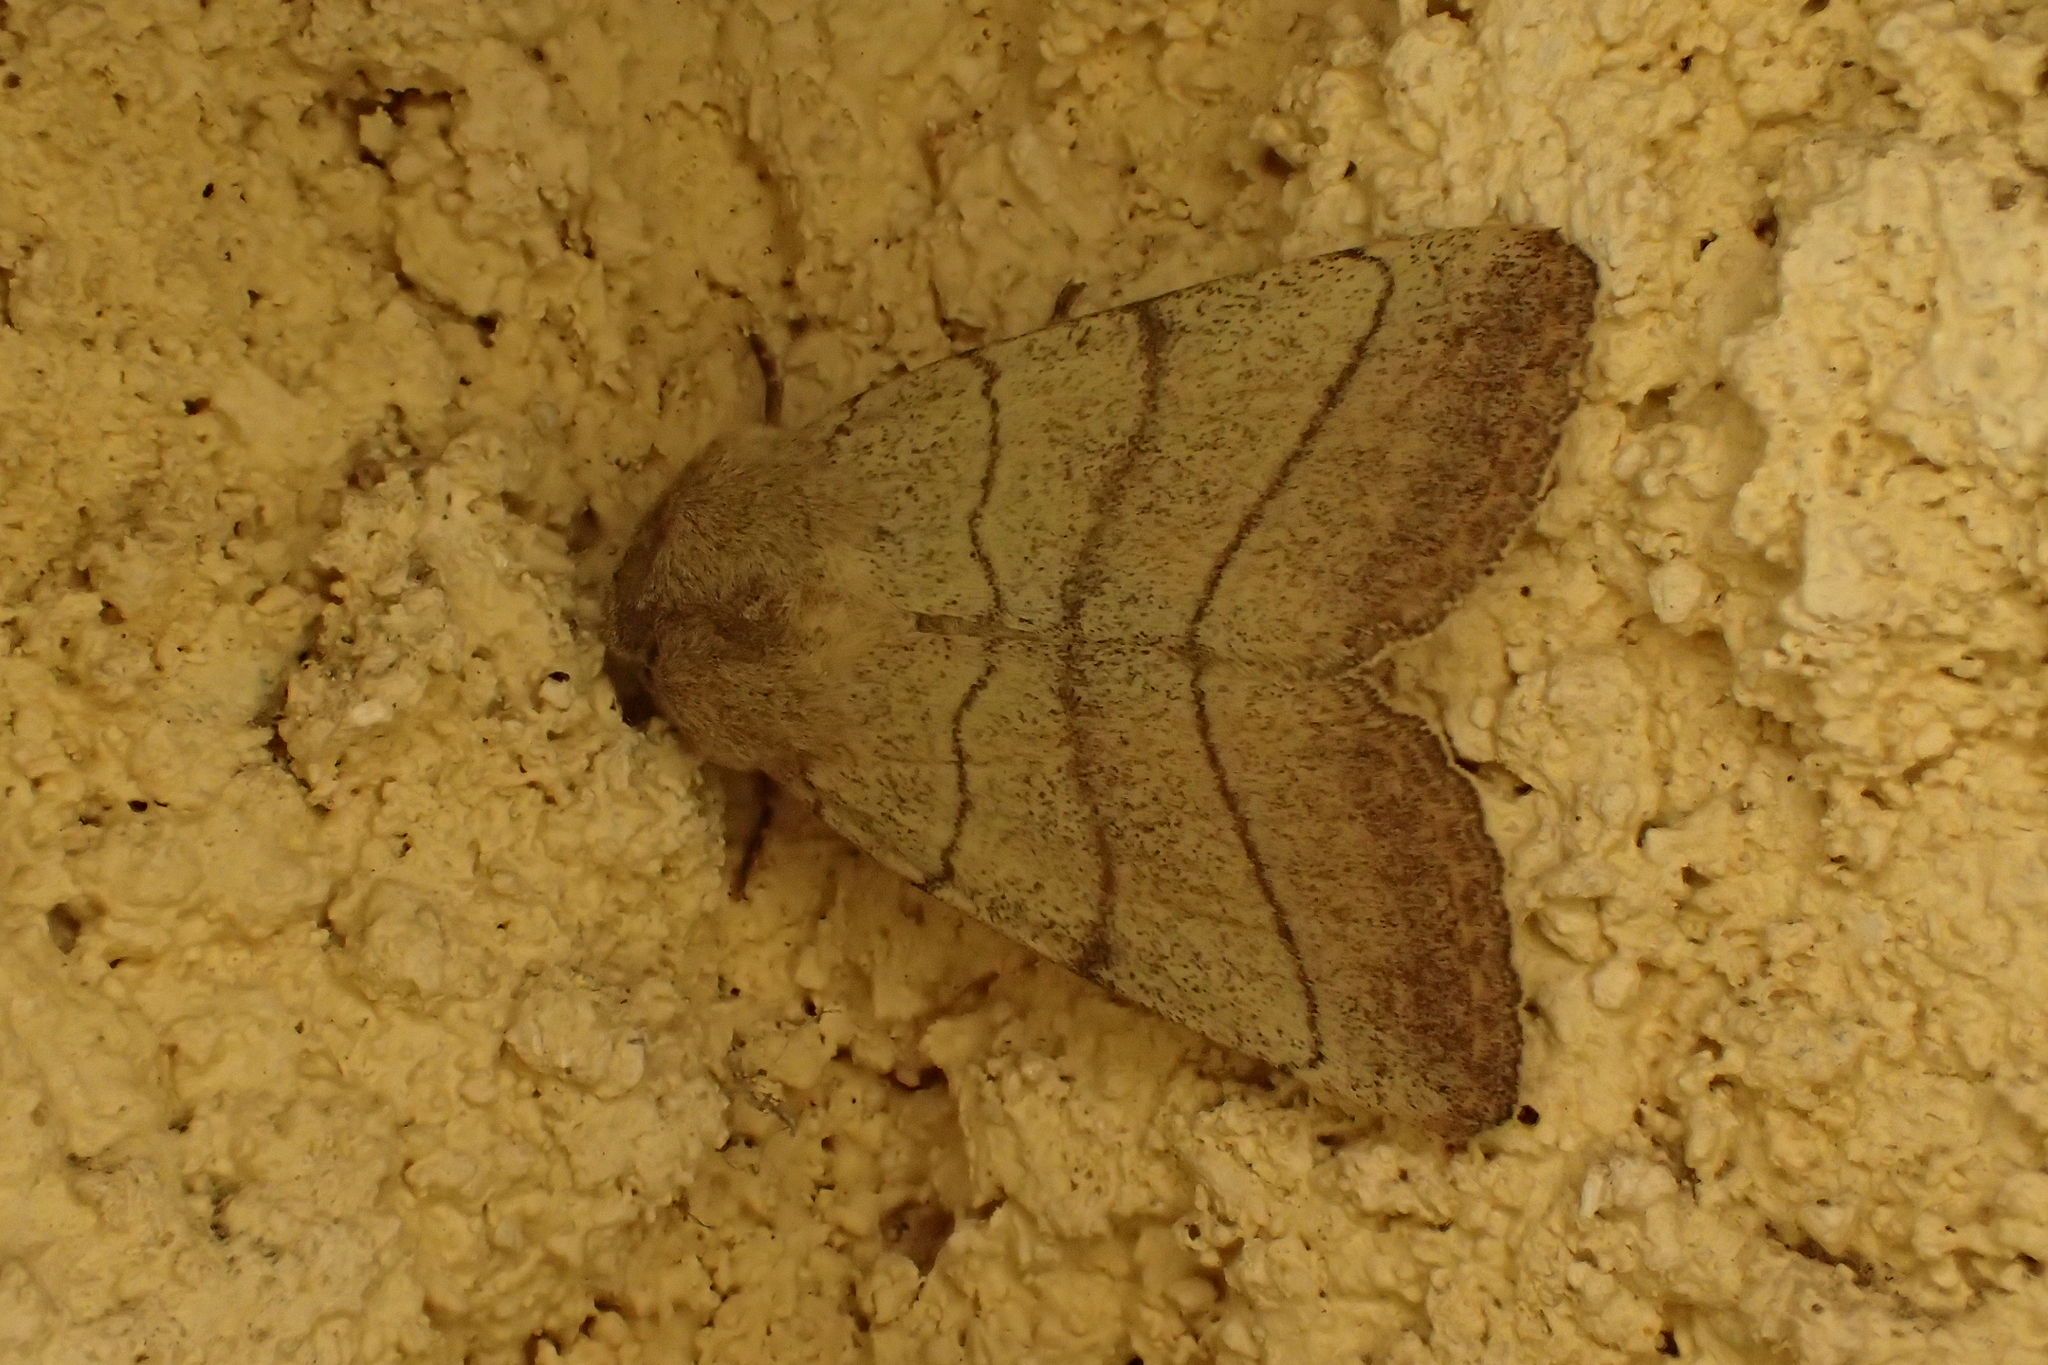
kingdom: Animalia
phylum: Arthropoda
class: Insecta
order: Lepidoptera
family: Noctuidae
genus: Charanyca
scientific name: Charanyca trigrammica
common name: Treble lines
